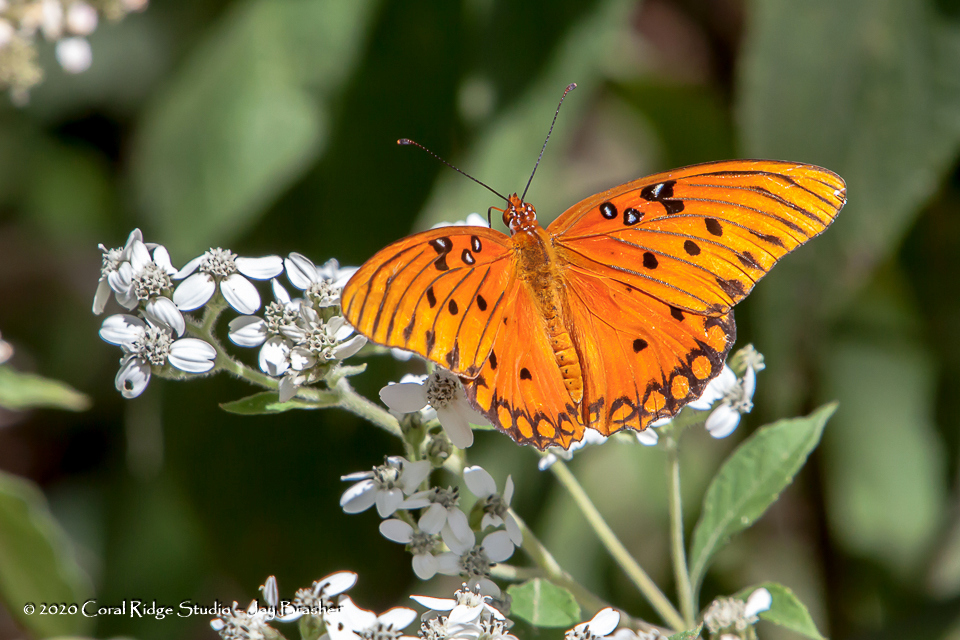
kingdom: Animalia
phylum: Arthropoda
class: Insecta
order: Lepidoptera
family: Nymphalidae
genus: Dione
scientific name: Dione vanillae
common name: Gulf fritillary
